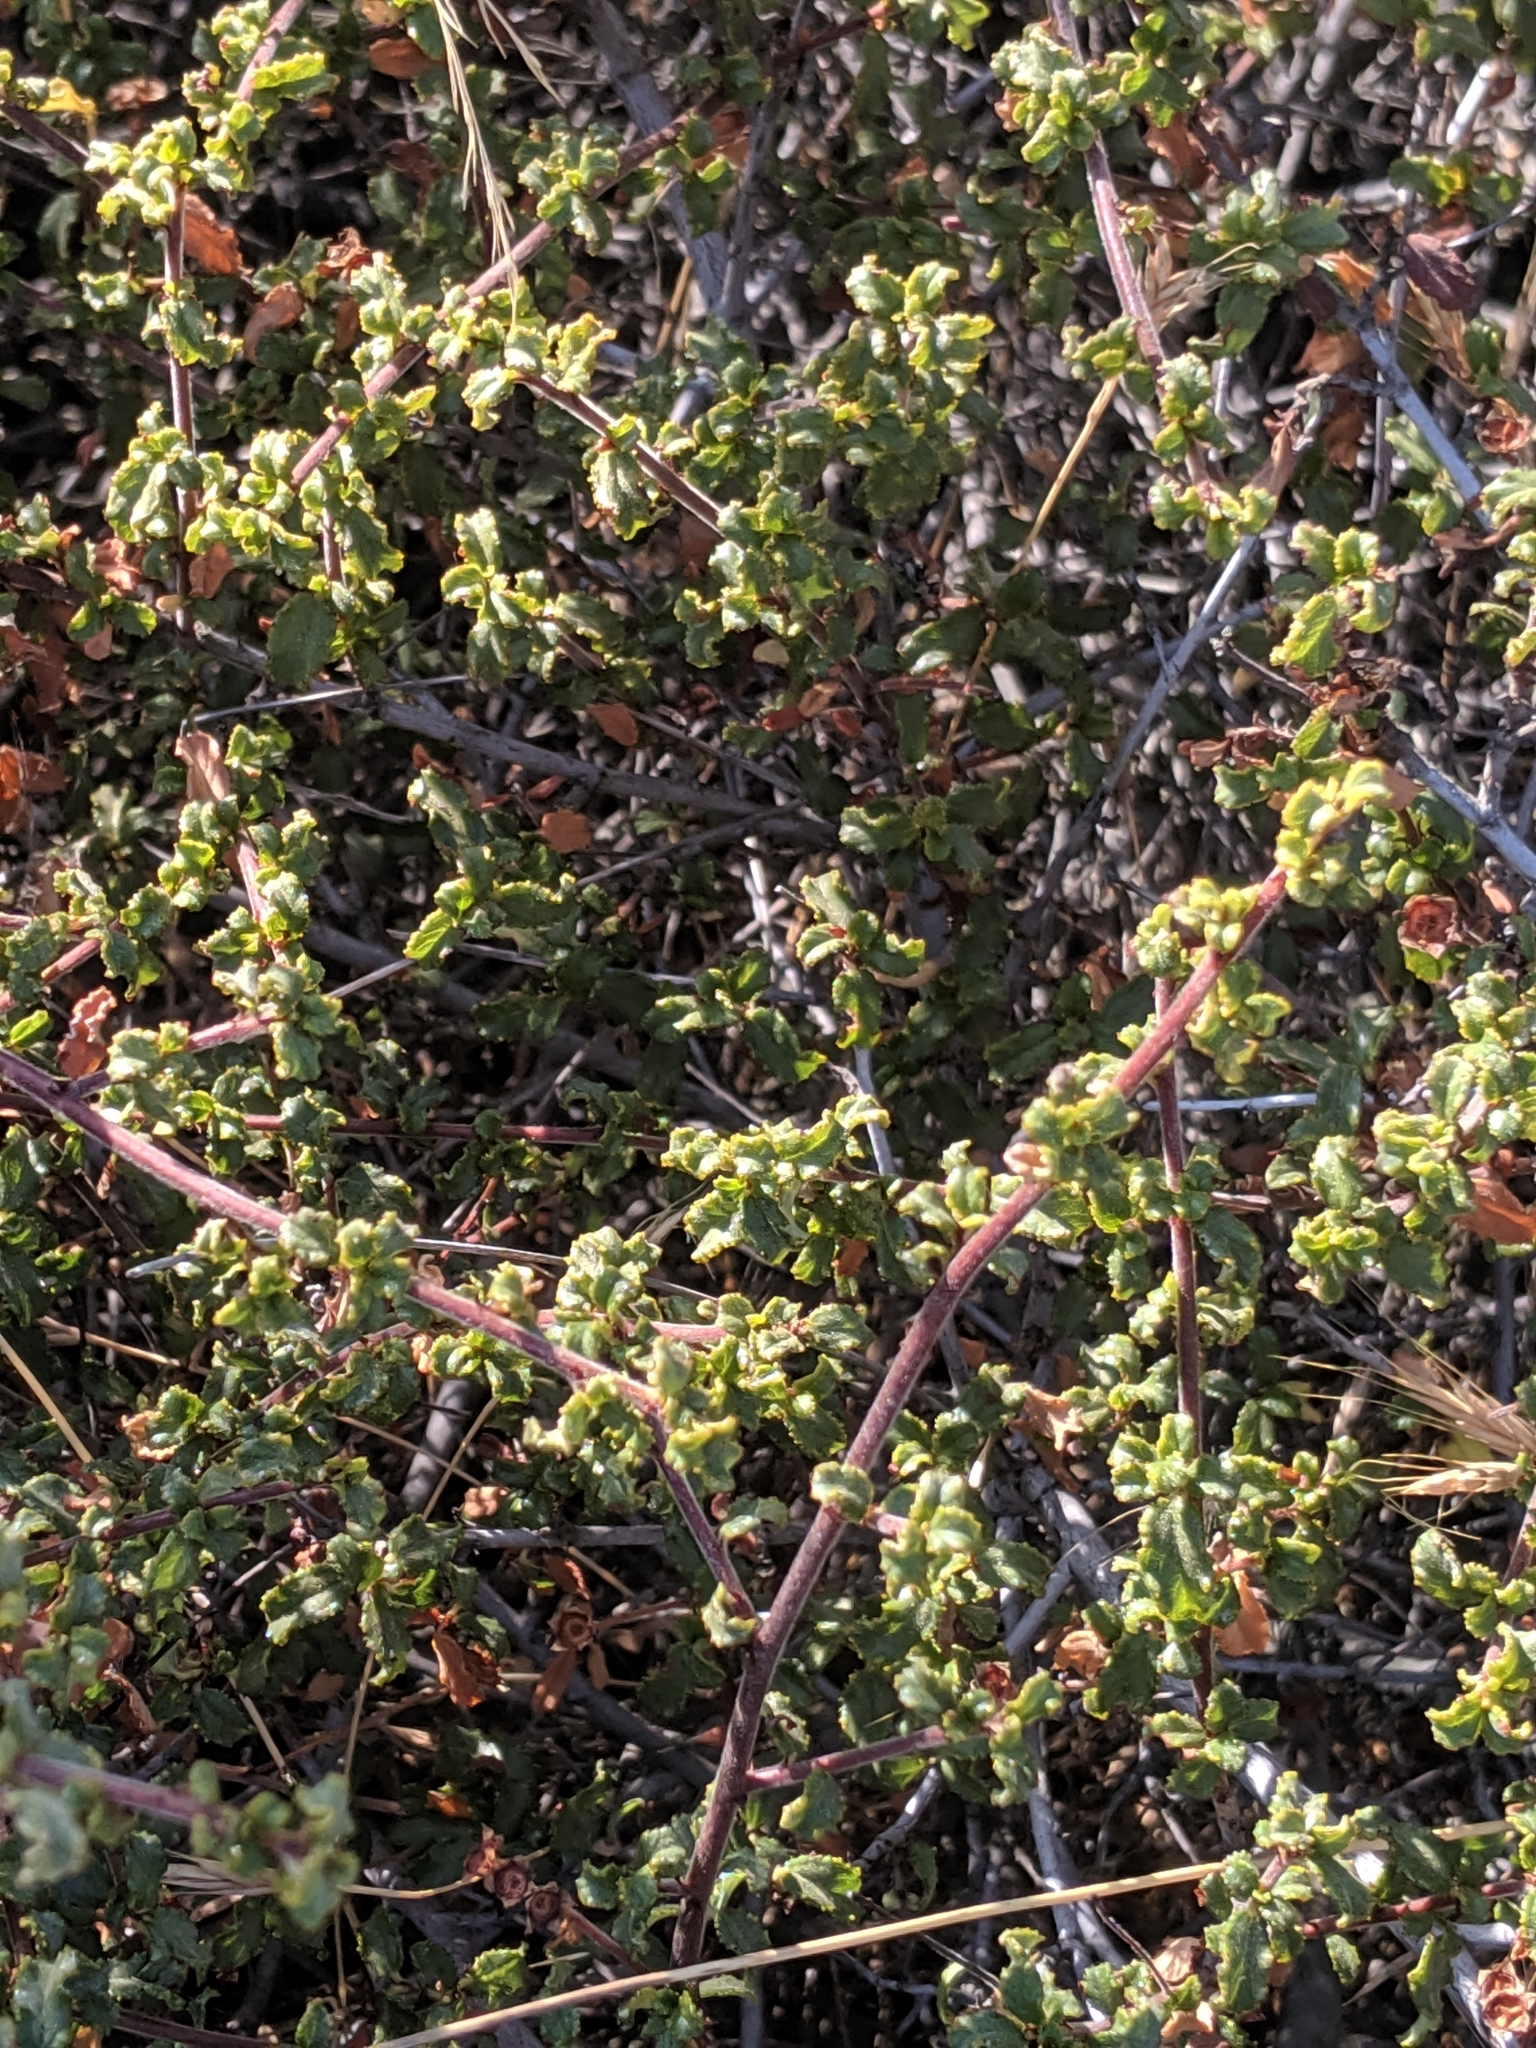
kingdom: Plantae
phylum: Tracheophyta
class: Magnoliopsida
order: Rosales
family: Rhamnaceae
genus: Ceanothus
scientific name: Ceanothus foliosus
